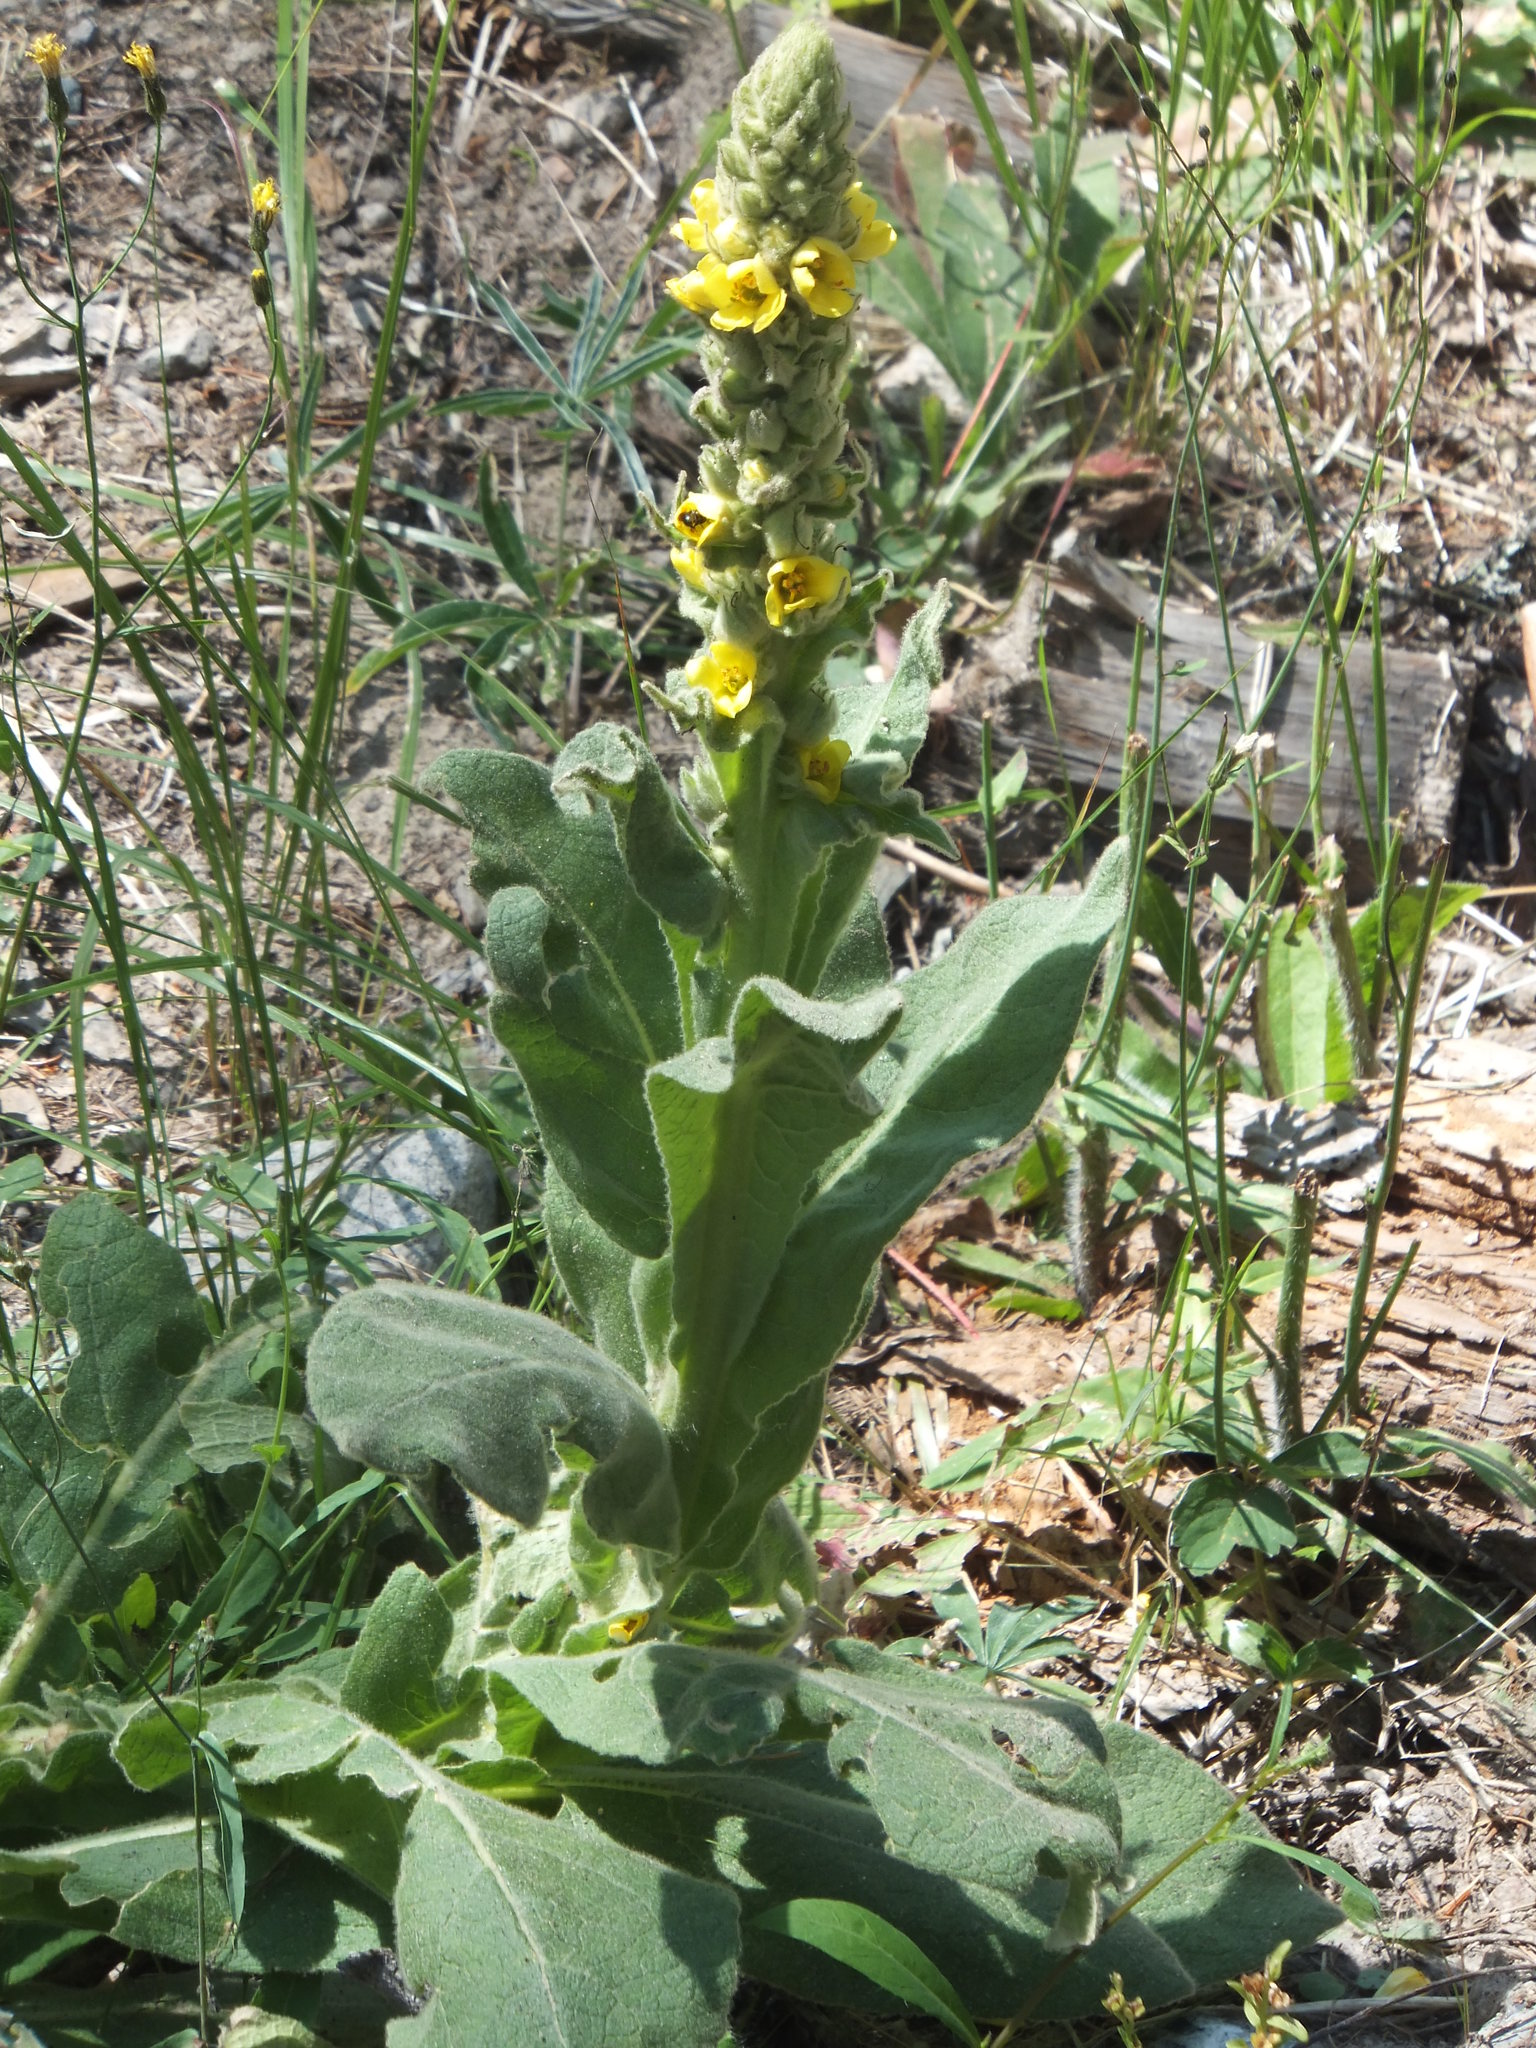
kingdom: Plantae
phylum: Tracheophyta
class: Magnoliopsida
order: Lamiales
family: Scrophulariaceae
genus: Verbascum
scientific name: Verbascum thapsus
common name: Common mullein
